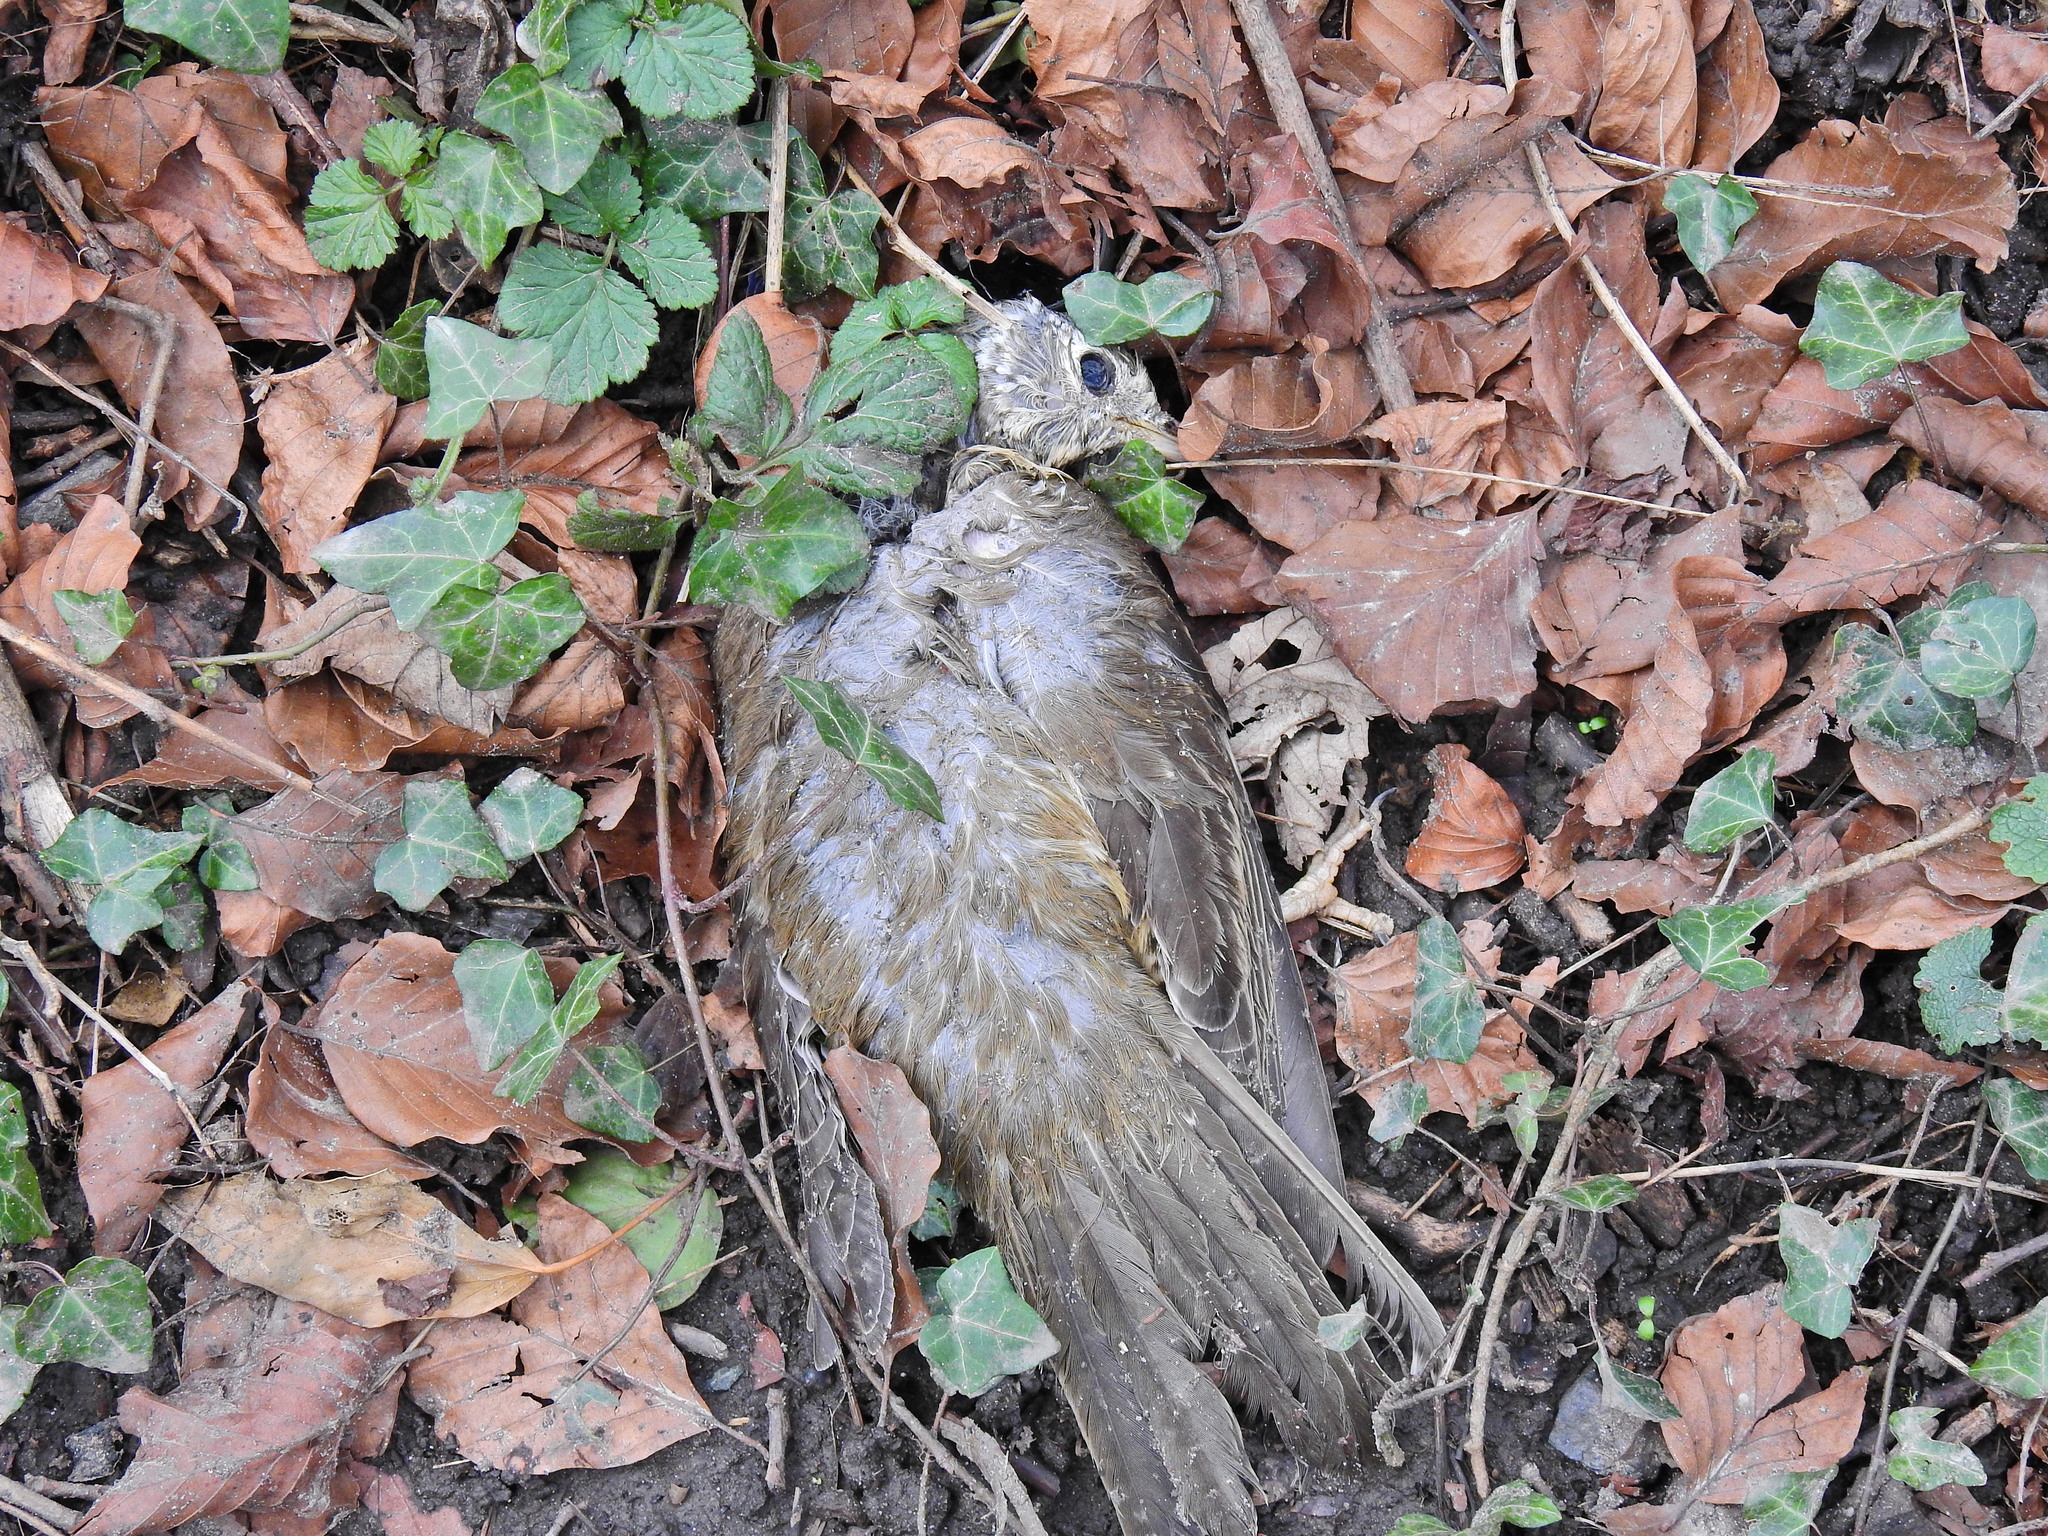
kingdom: Animalia
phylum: Chordata
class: Aves
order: Passeriformes
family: Turdidae
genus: Turdus
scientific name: Turdus viscivorus
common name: Mistle thrush
